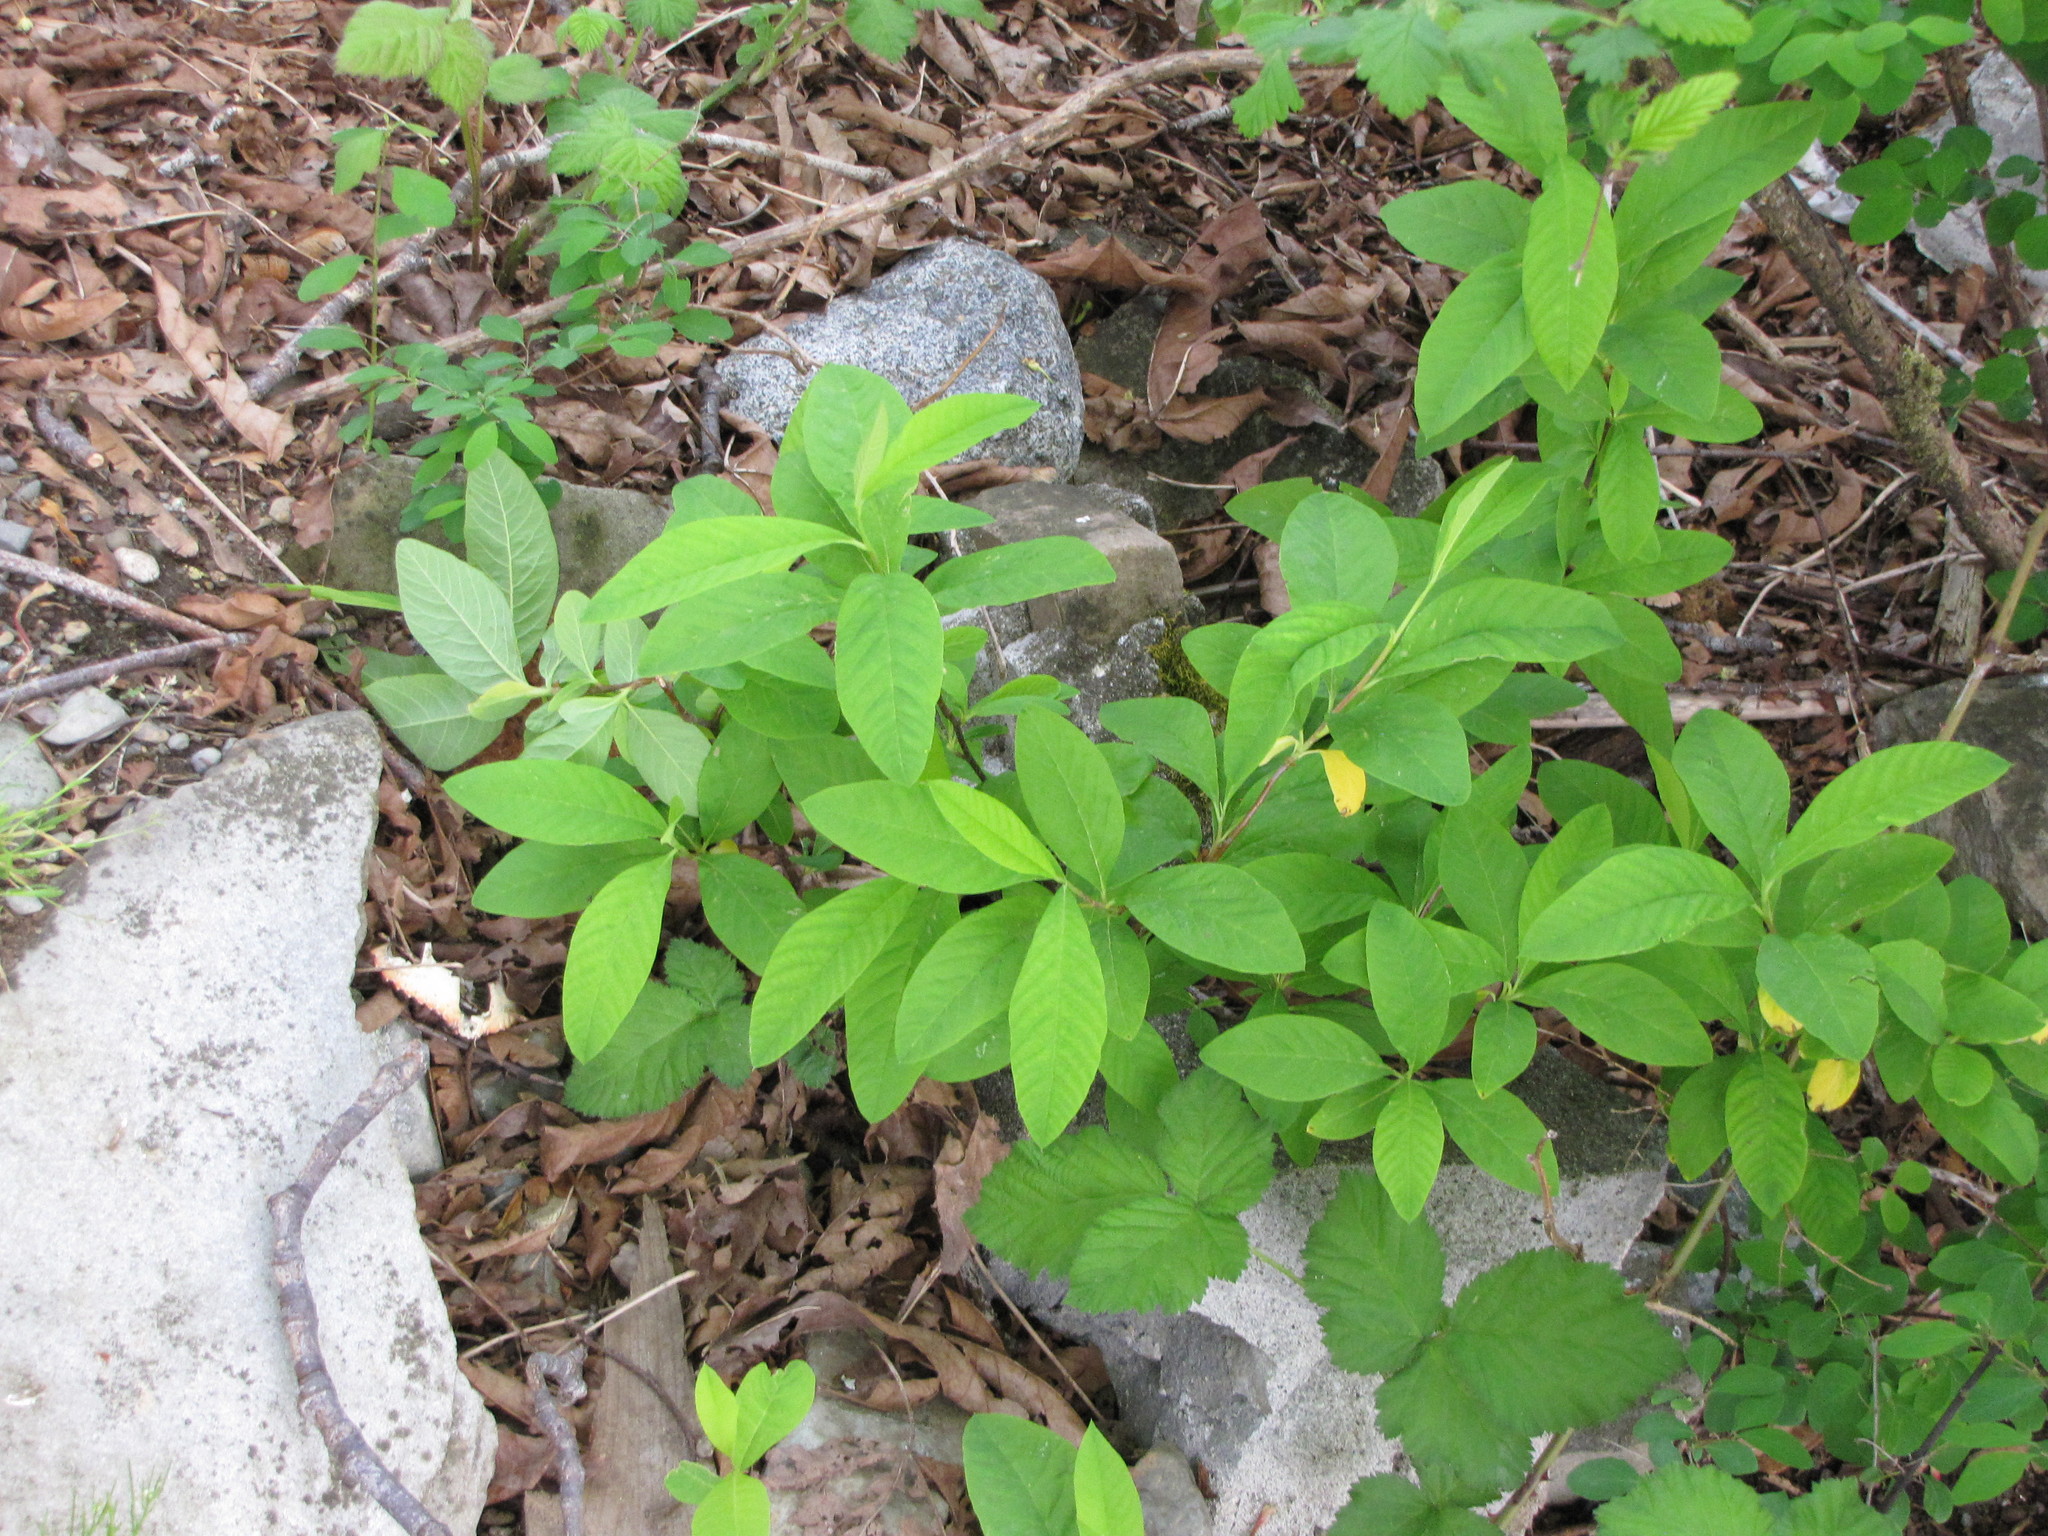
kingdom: Plantae
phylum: Tracheophyta
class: Magnoliopsida
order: Rosales
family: Rosaceae
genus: Oemleria
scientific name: Oemleria cerasiformis
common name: Osoberry
